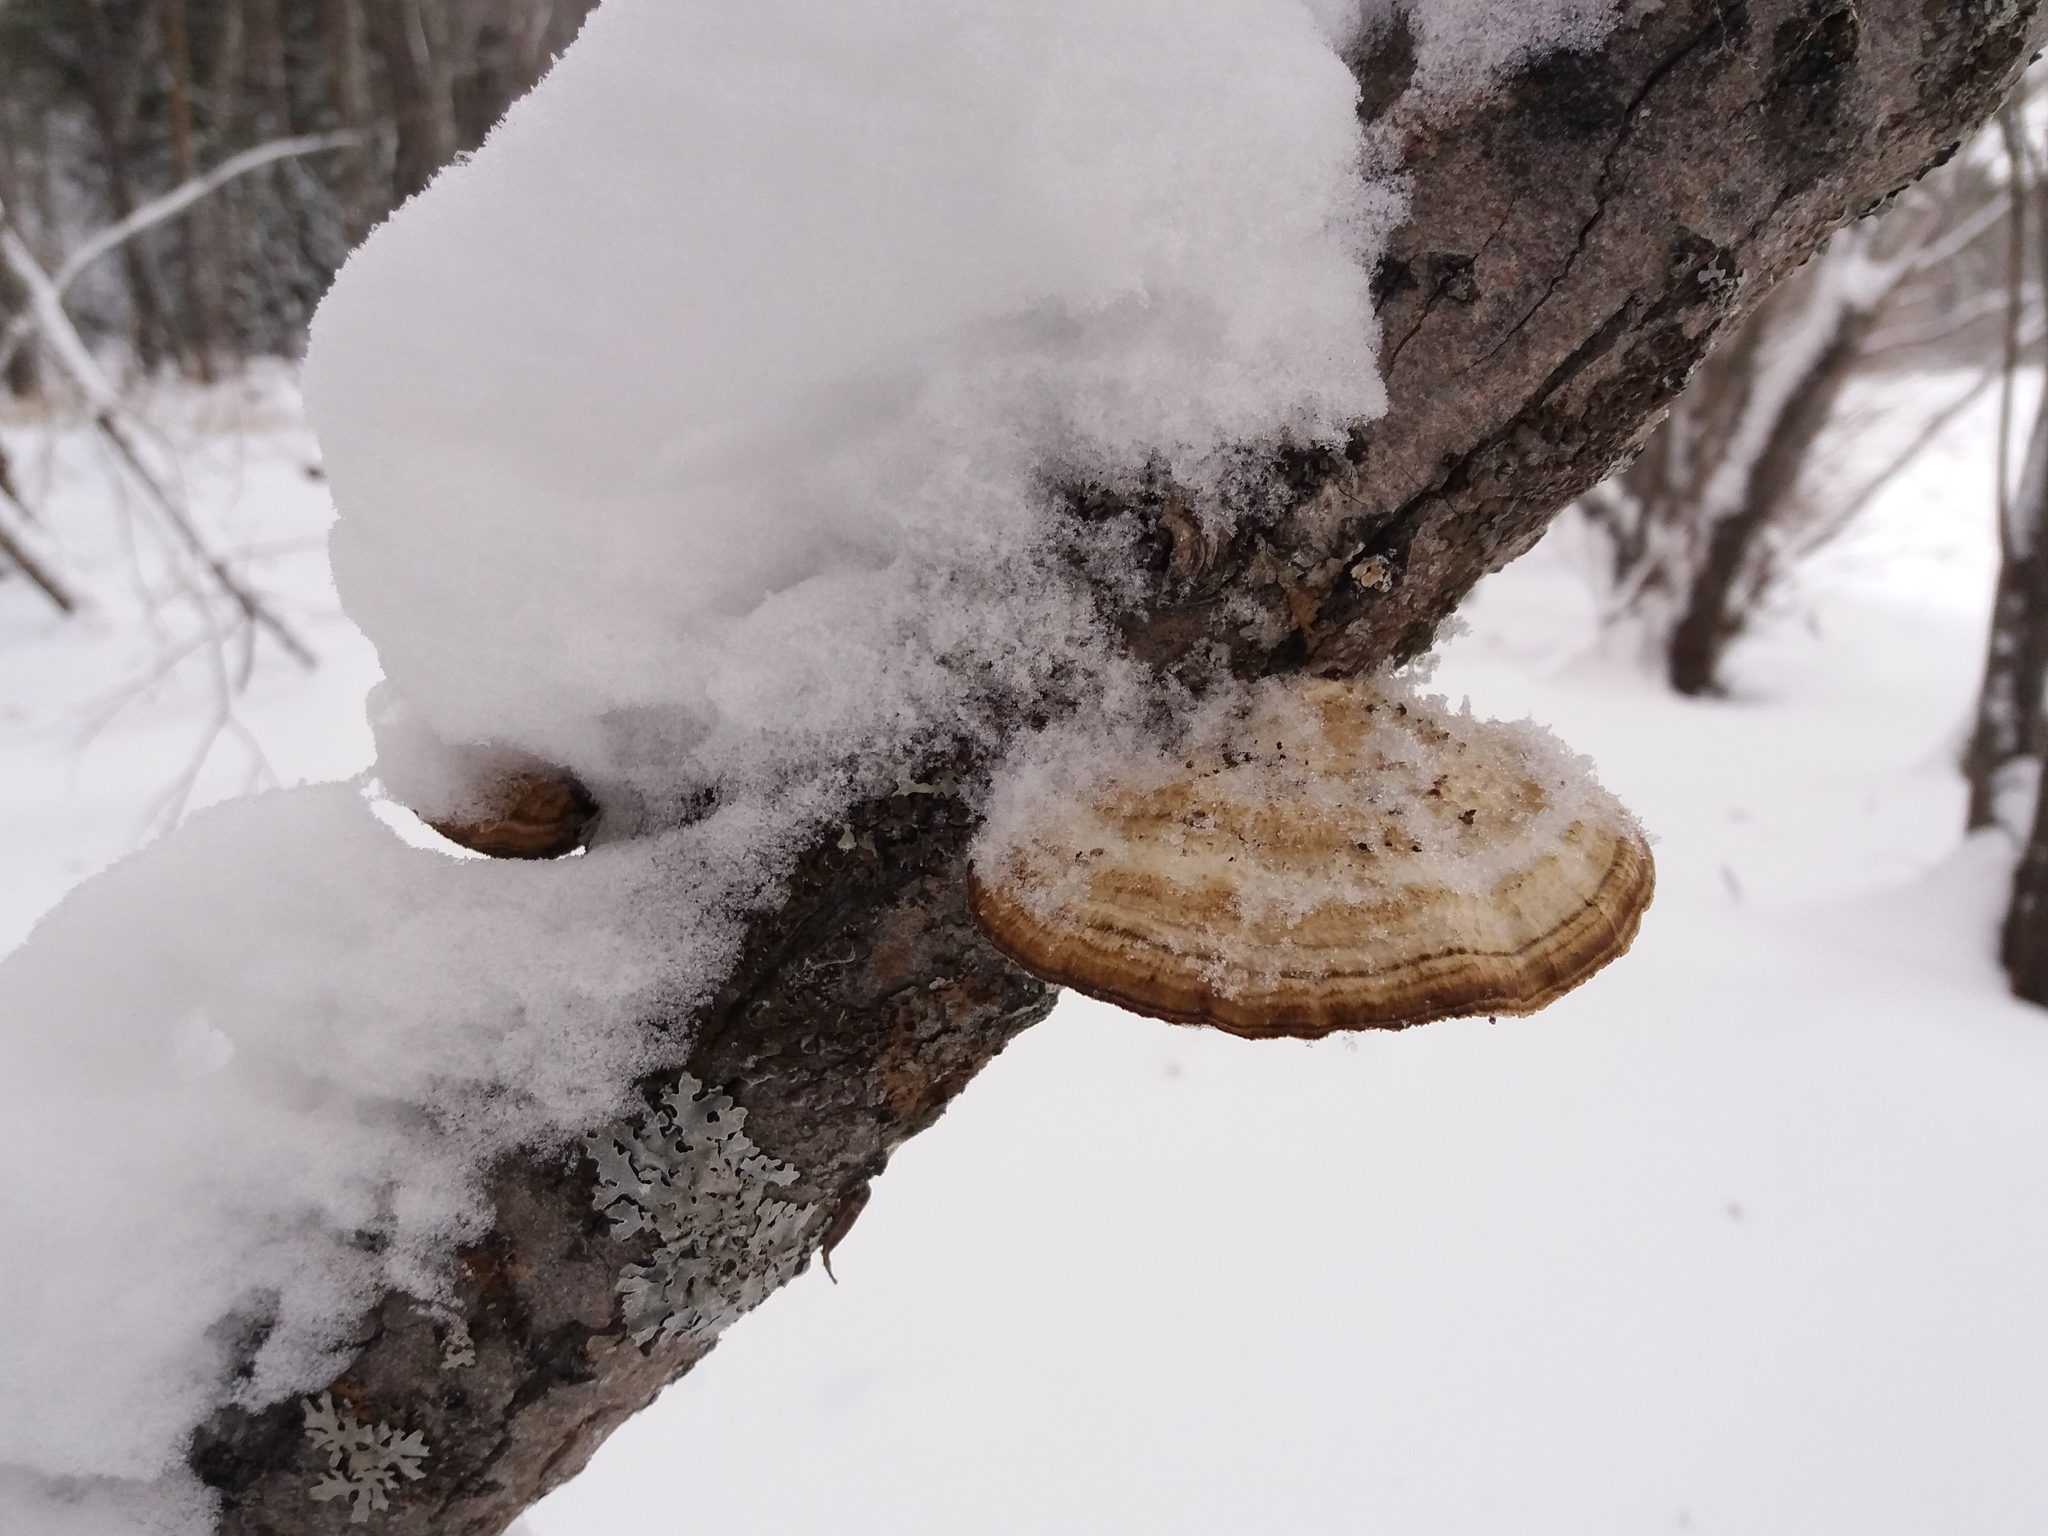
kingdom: Fungi
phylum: Basidiomycota
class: Agaricomycetes
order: Polyporales
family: Polyporaceae
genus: Daedaleopsis
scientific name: Daedaleopsis confragosa
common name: Blushing bracket
